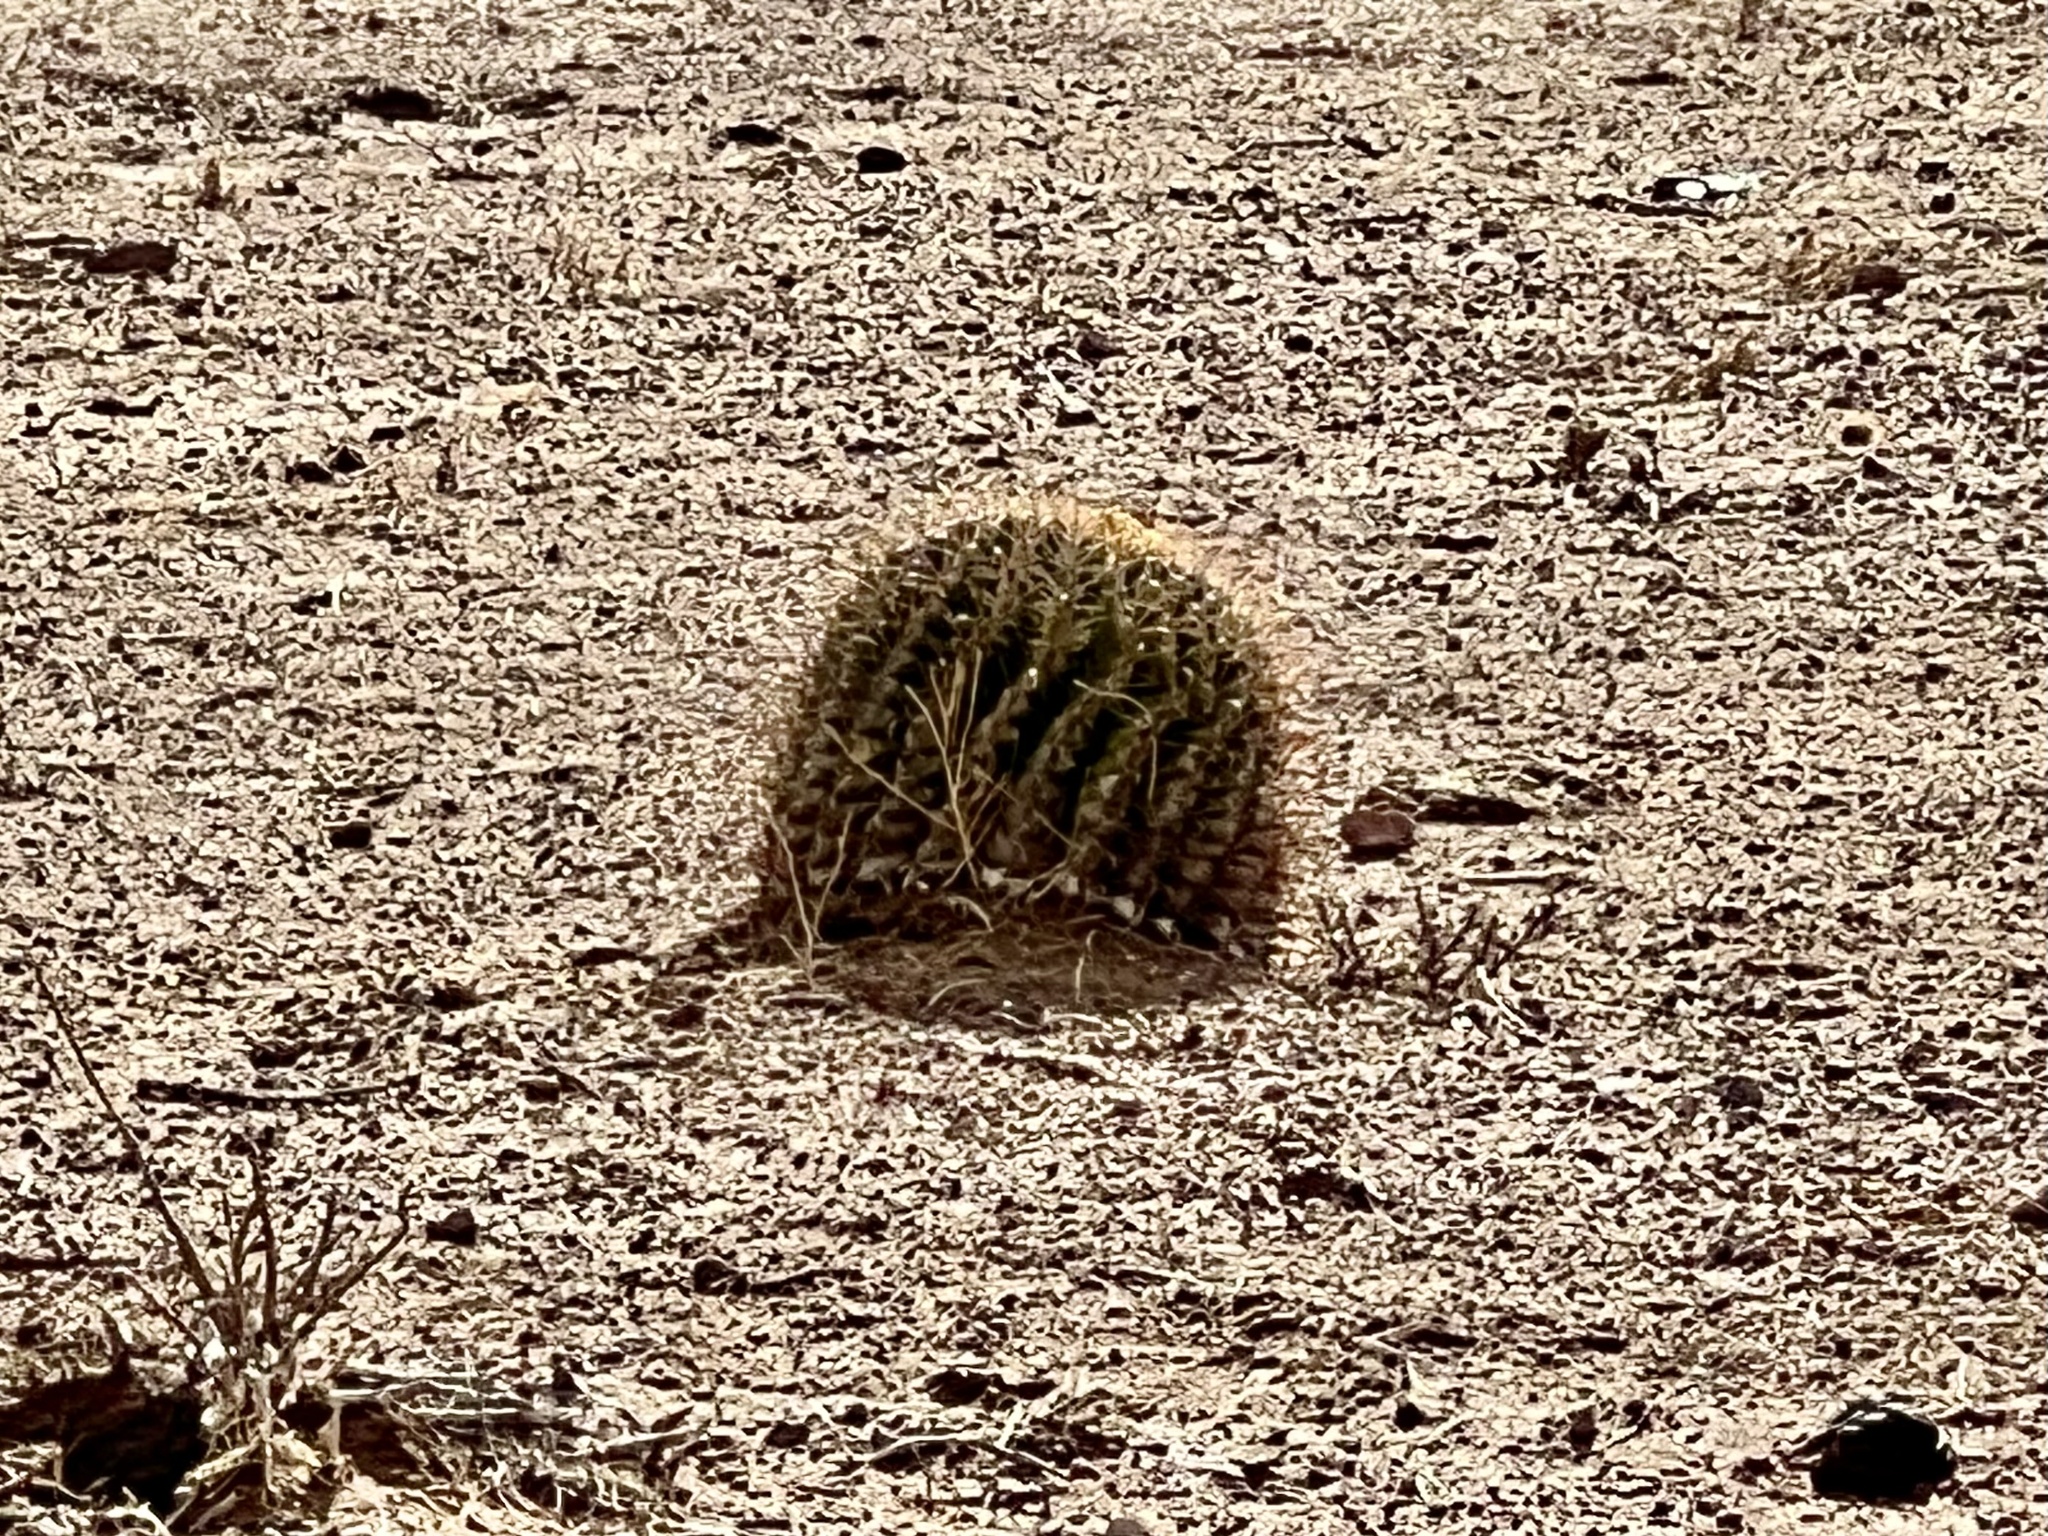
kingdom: Plantae
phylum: Tracheophyta
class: Magnoliopsida
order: Caryophyllales
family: Cactaceae
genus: Ferocactus
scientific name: Ferocactus wislizeni
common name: Candy barrel cactus
